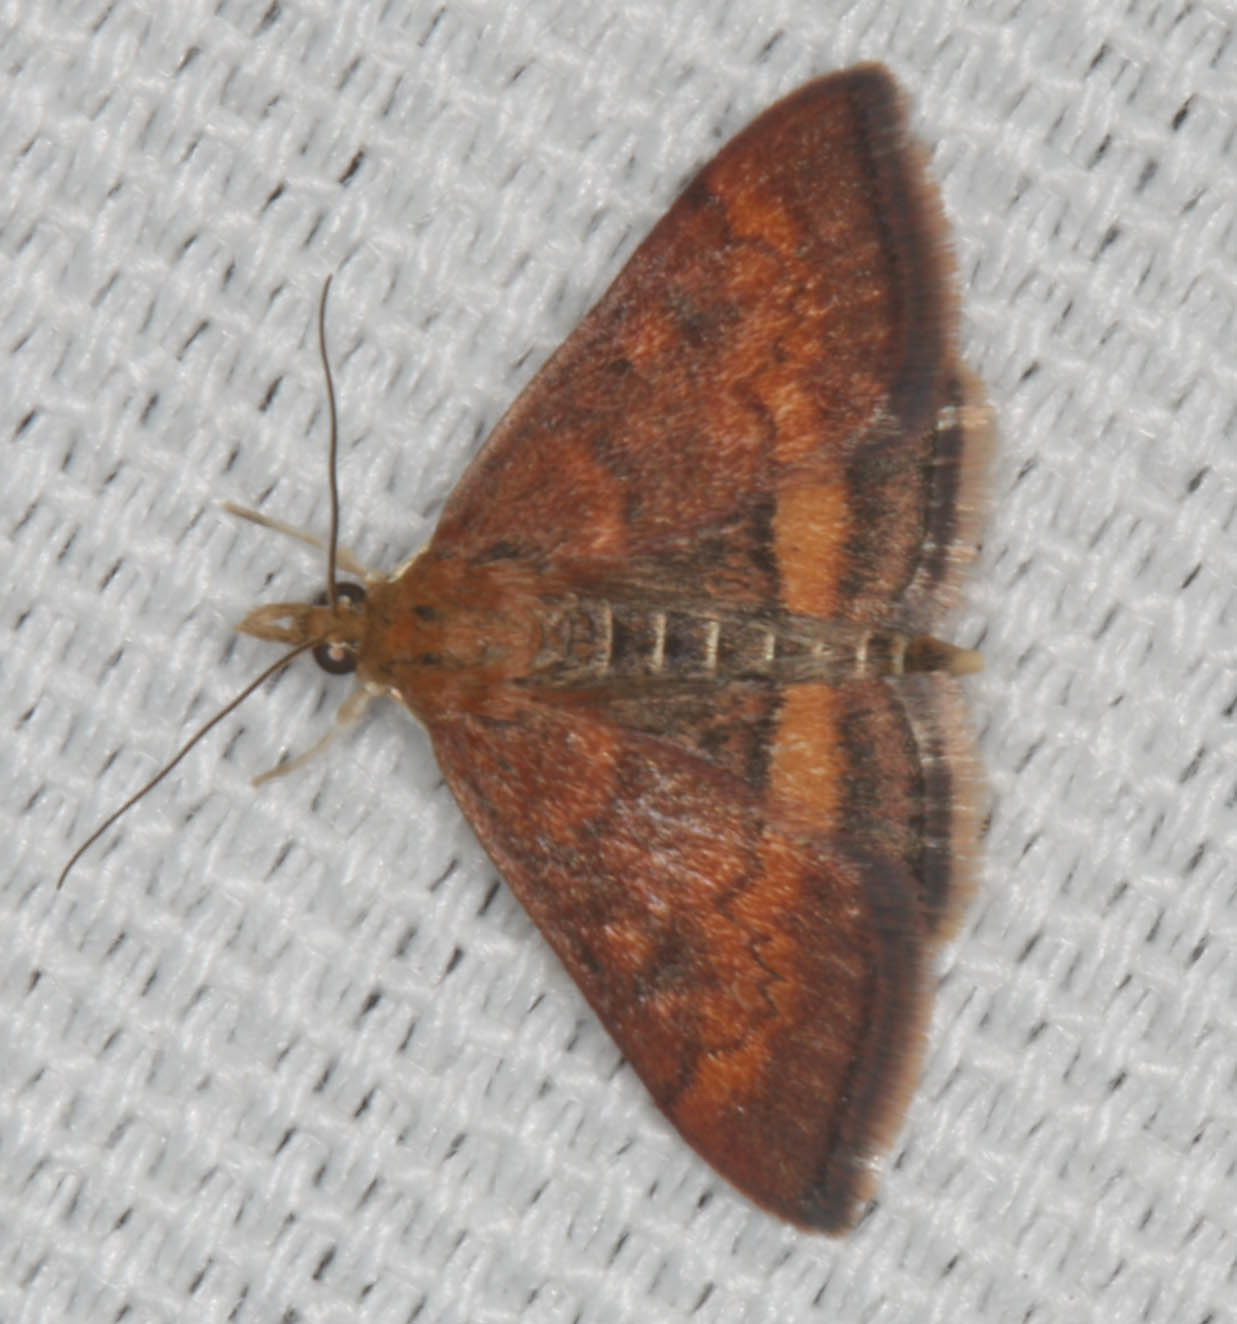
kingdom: Animalia
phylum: Arthropoda
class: Insecta
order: Lepidoptera
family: Crambidae
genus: Pyrausta
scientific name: Pyrausta californicalis
